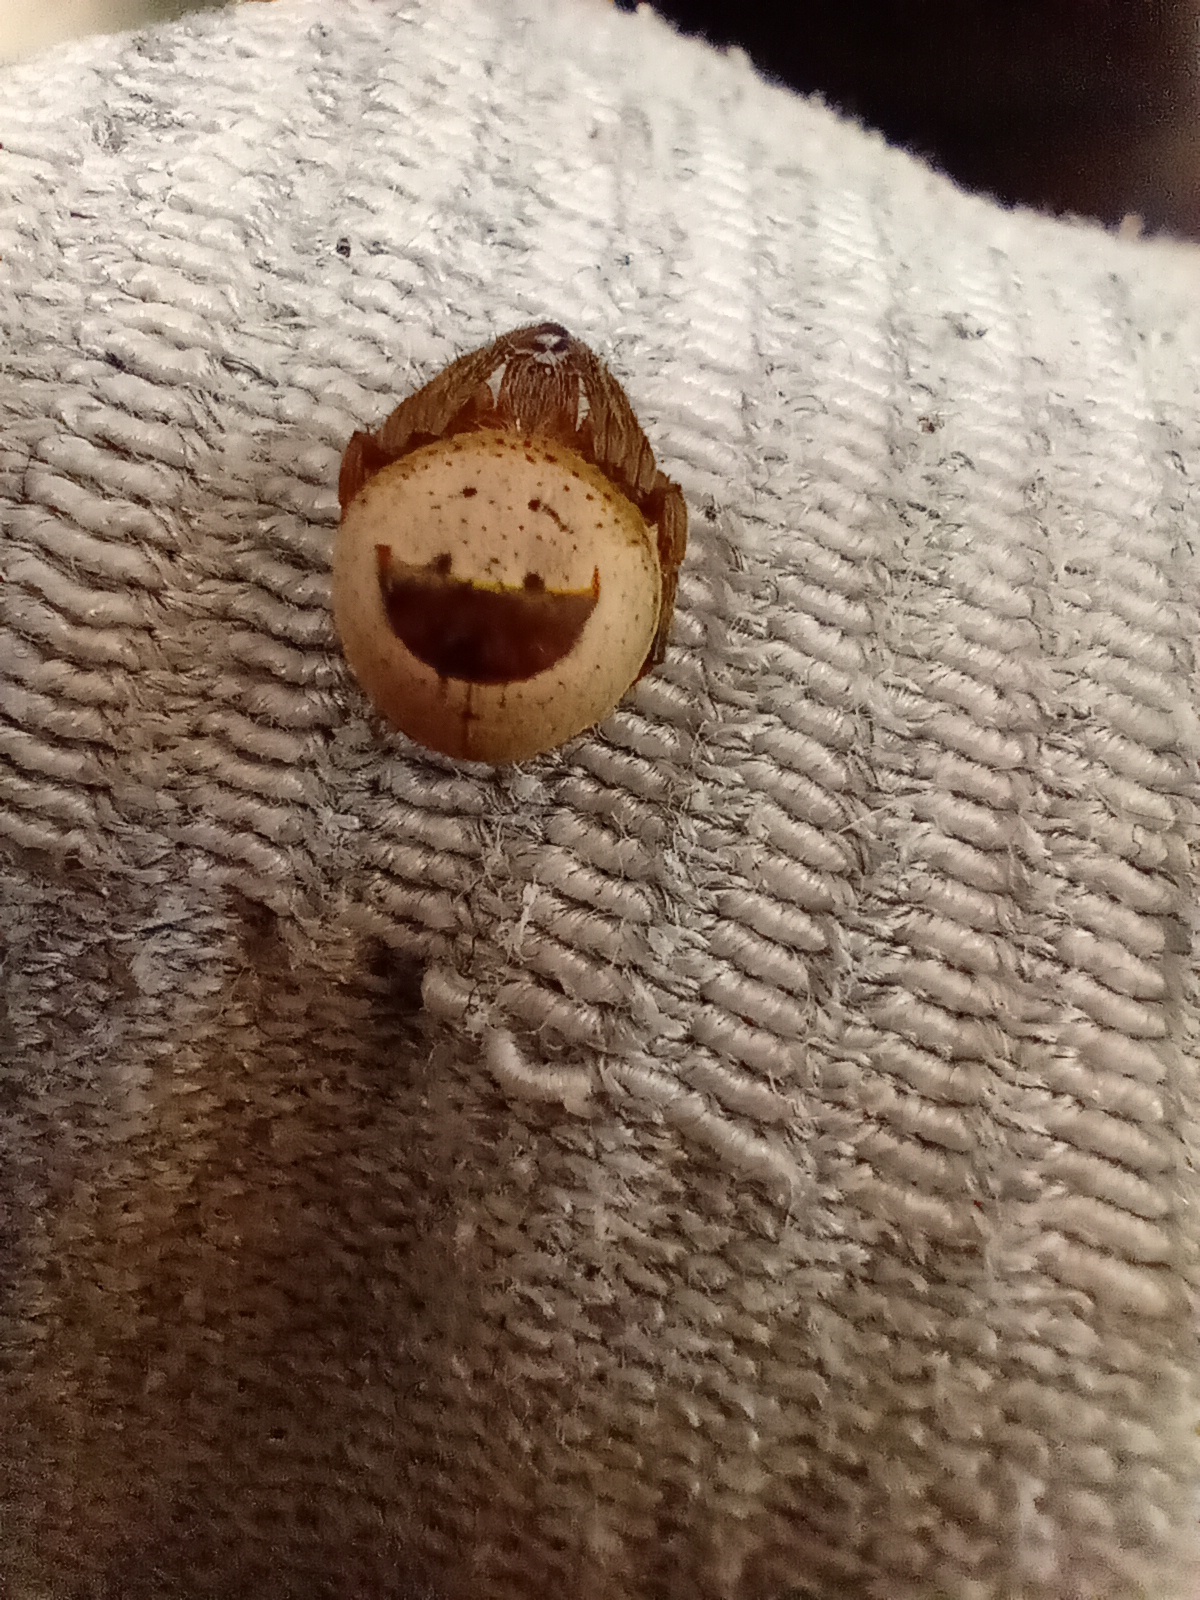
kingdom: Animalia
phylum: Arthropoda
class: Arachnida
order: Araneae
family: Araneidae
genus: Ocrepeira
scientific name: Ocrepeira covillei
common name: Orb weavers
